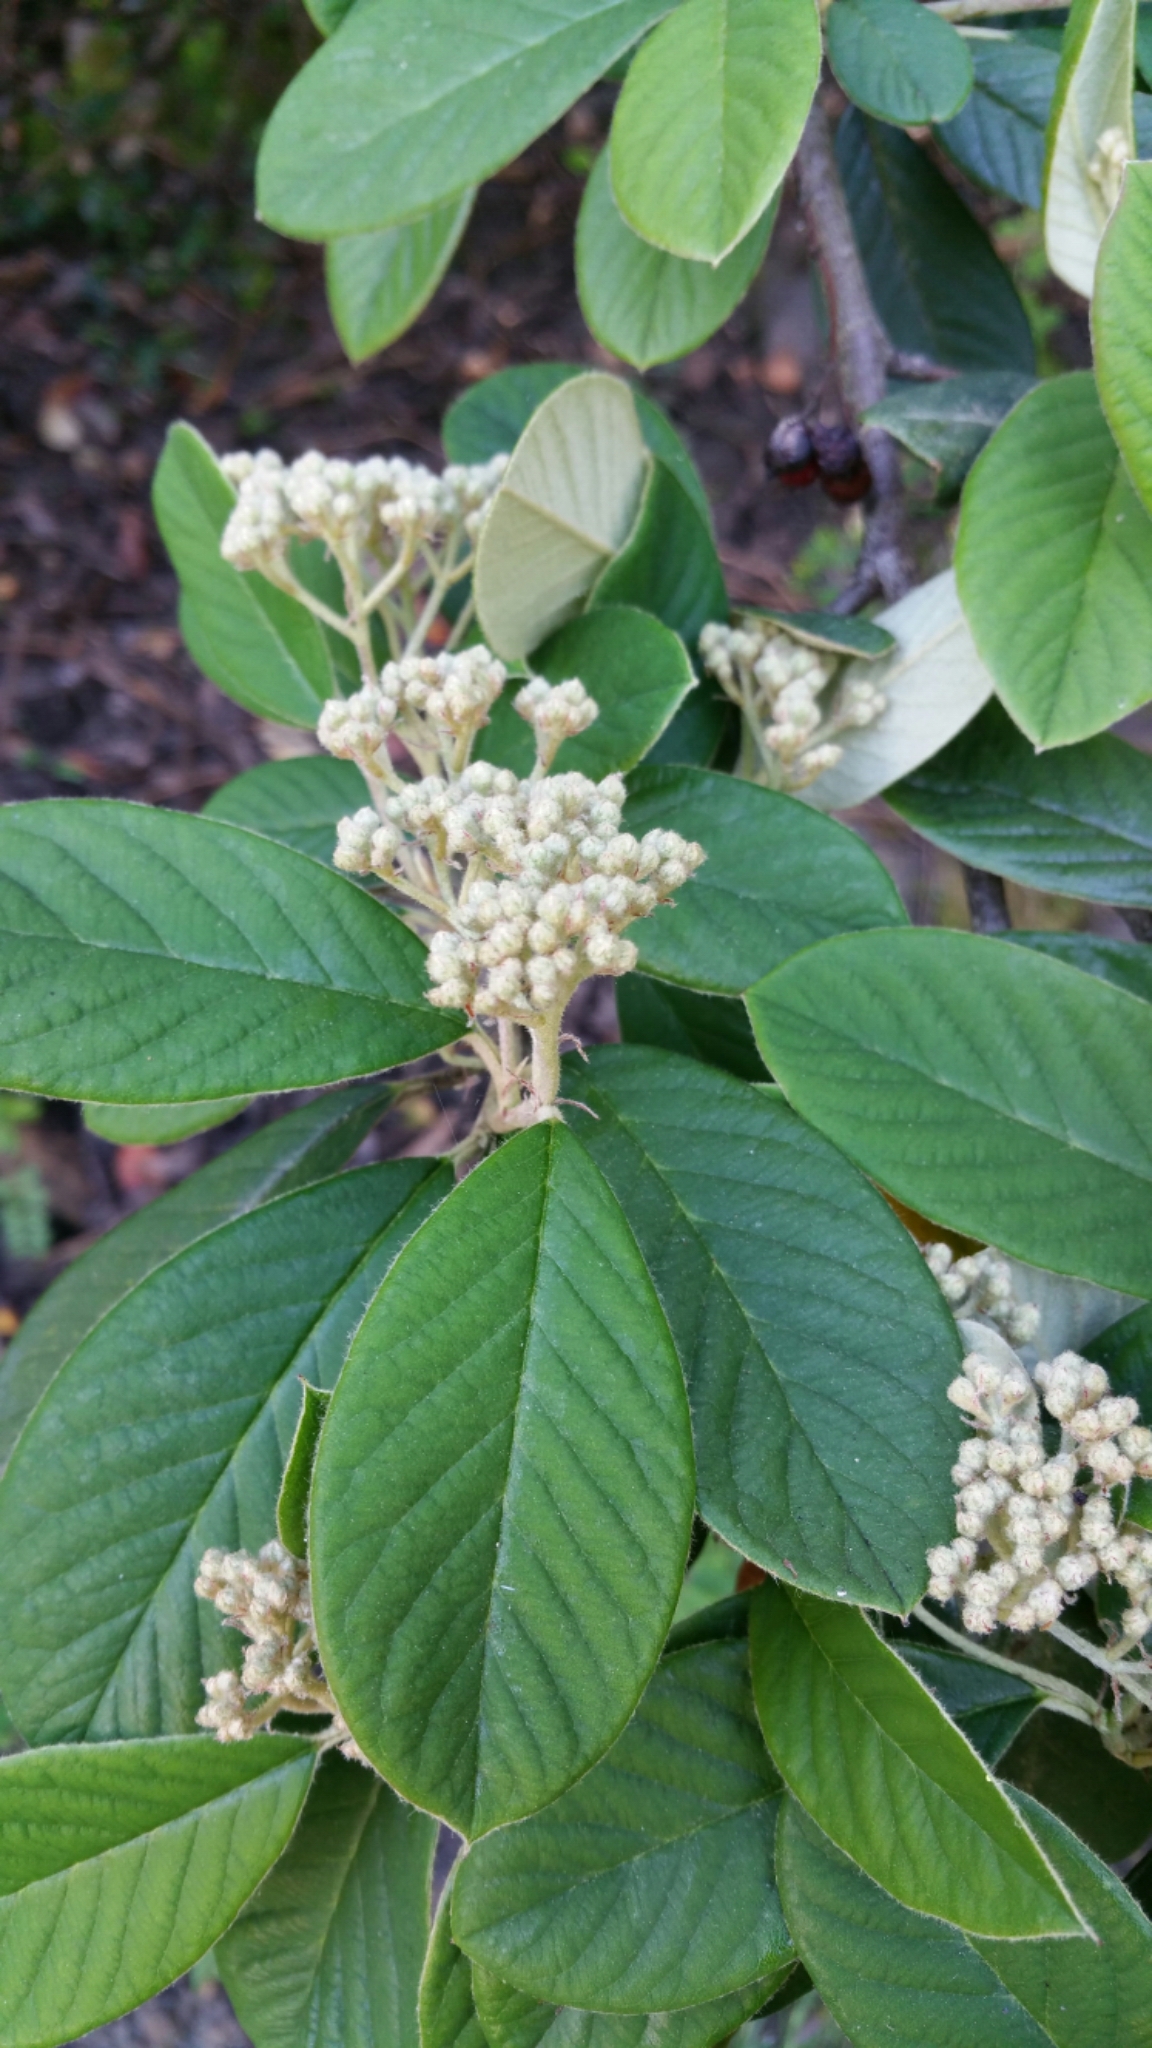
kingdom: Plantae
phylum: Tracheophyta
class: Magnoliopsida
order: Rosales
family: Rosaceae
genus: Cotoneaster
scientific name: Cotoneaster coriaceus
